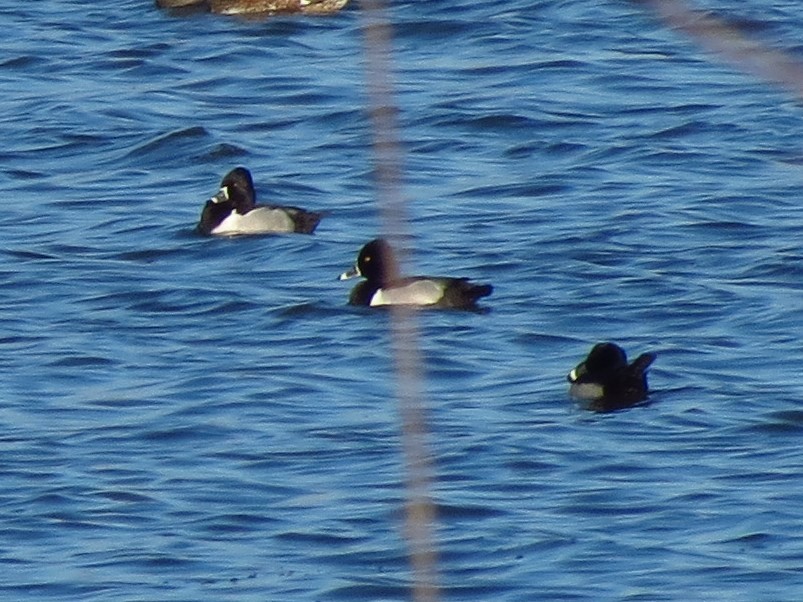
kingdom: Animalia
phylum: Chordata
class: Aves
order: Anseriformes
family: Anatidae
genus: Aythya
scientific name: Aythya collaris
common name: Ring-necked duck
